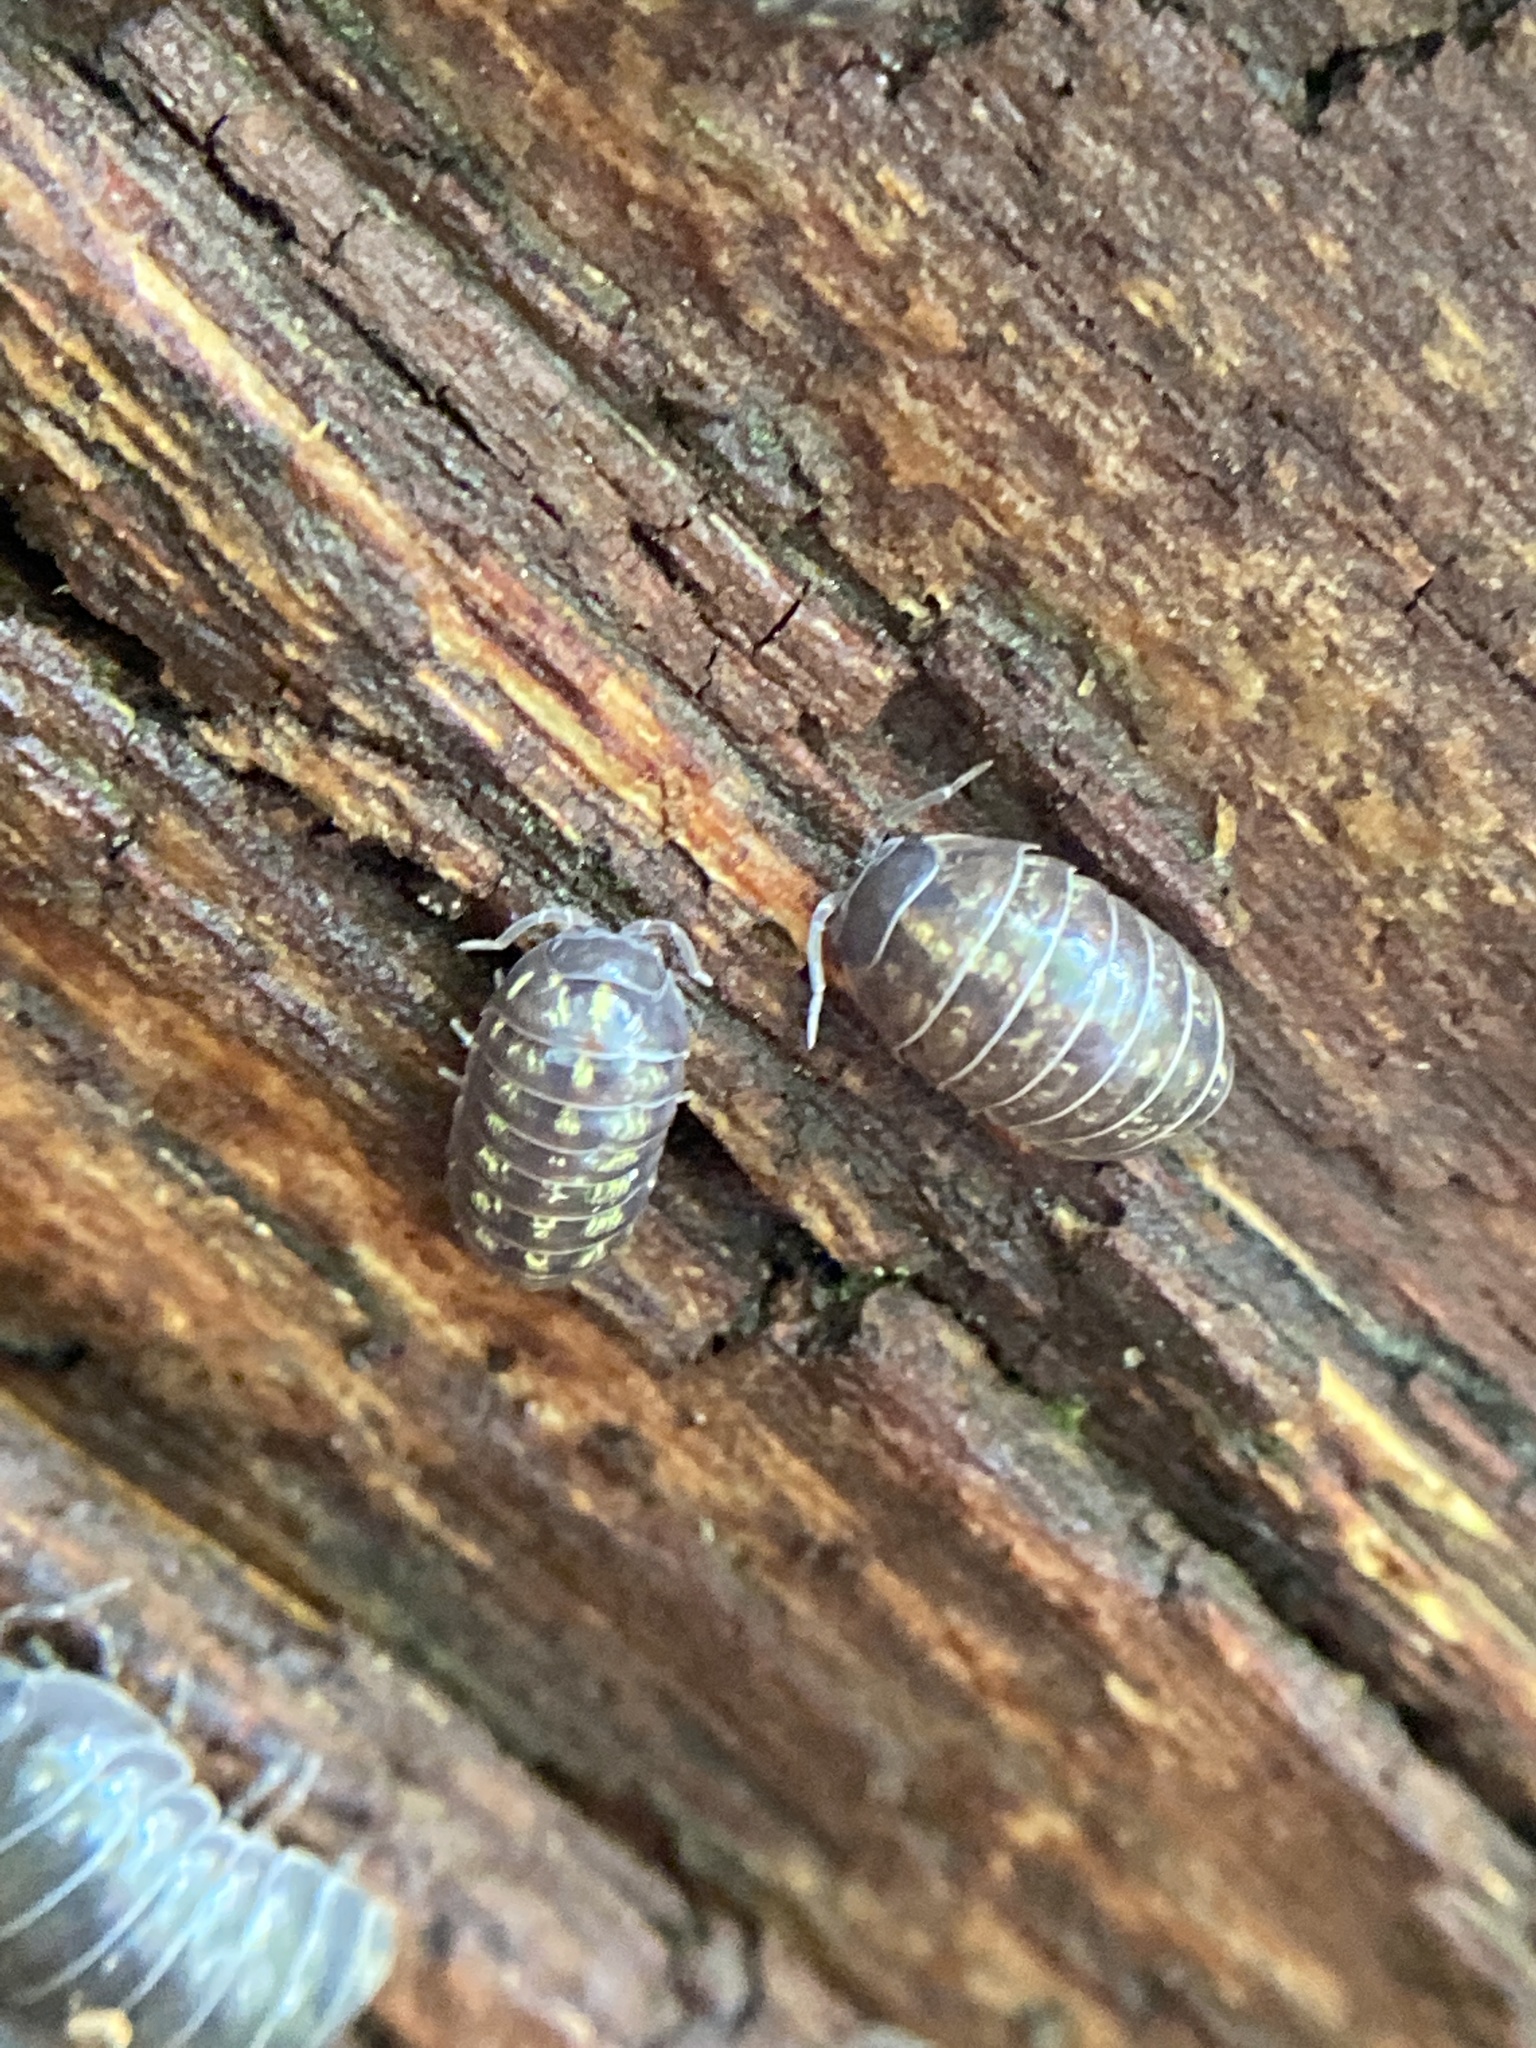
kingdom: Animalia
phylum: Arthropoda
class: Malacostraca
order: Isopoda
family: Armadillidiidae
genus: Armadillidium
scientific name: Armadillidium nasatum
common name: Isopod
